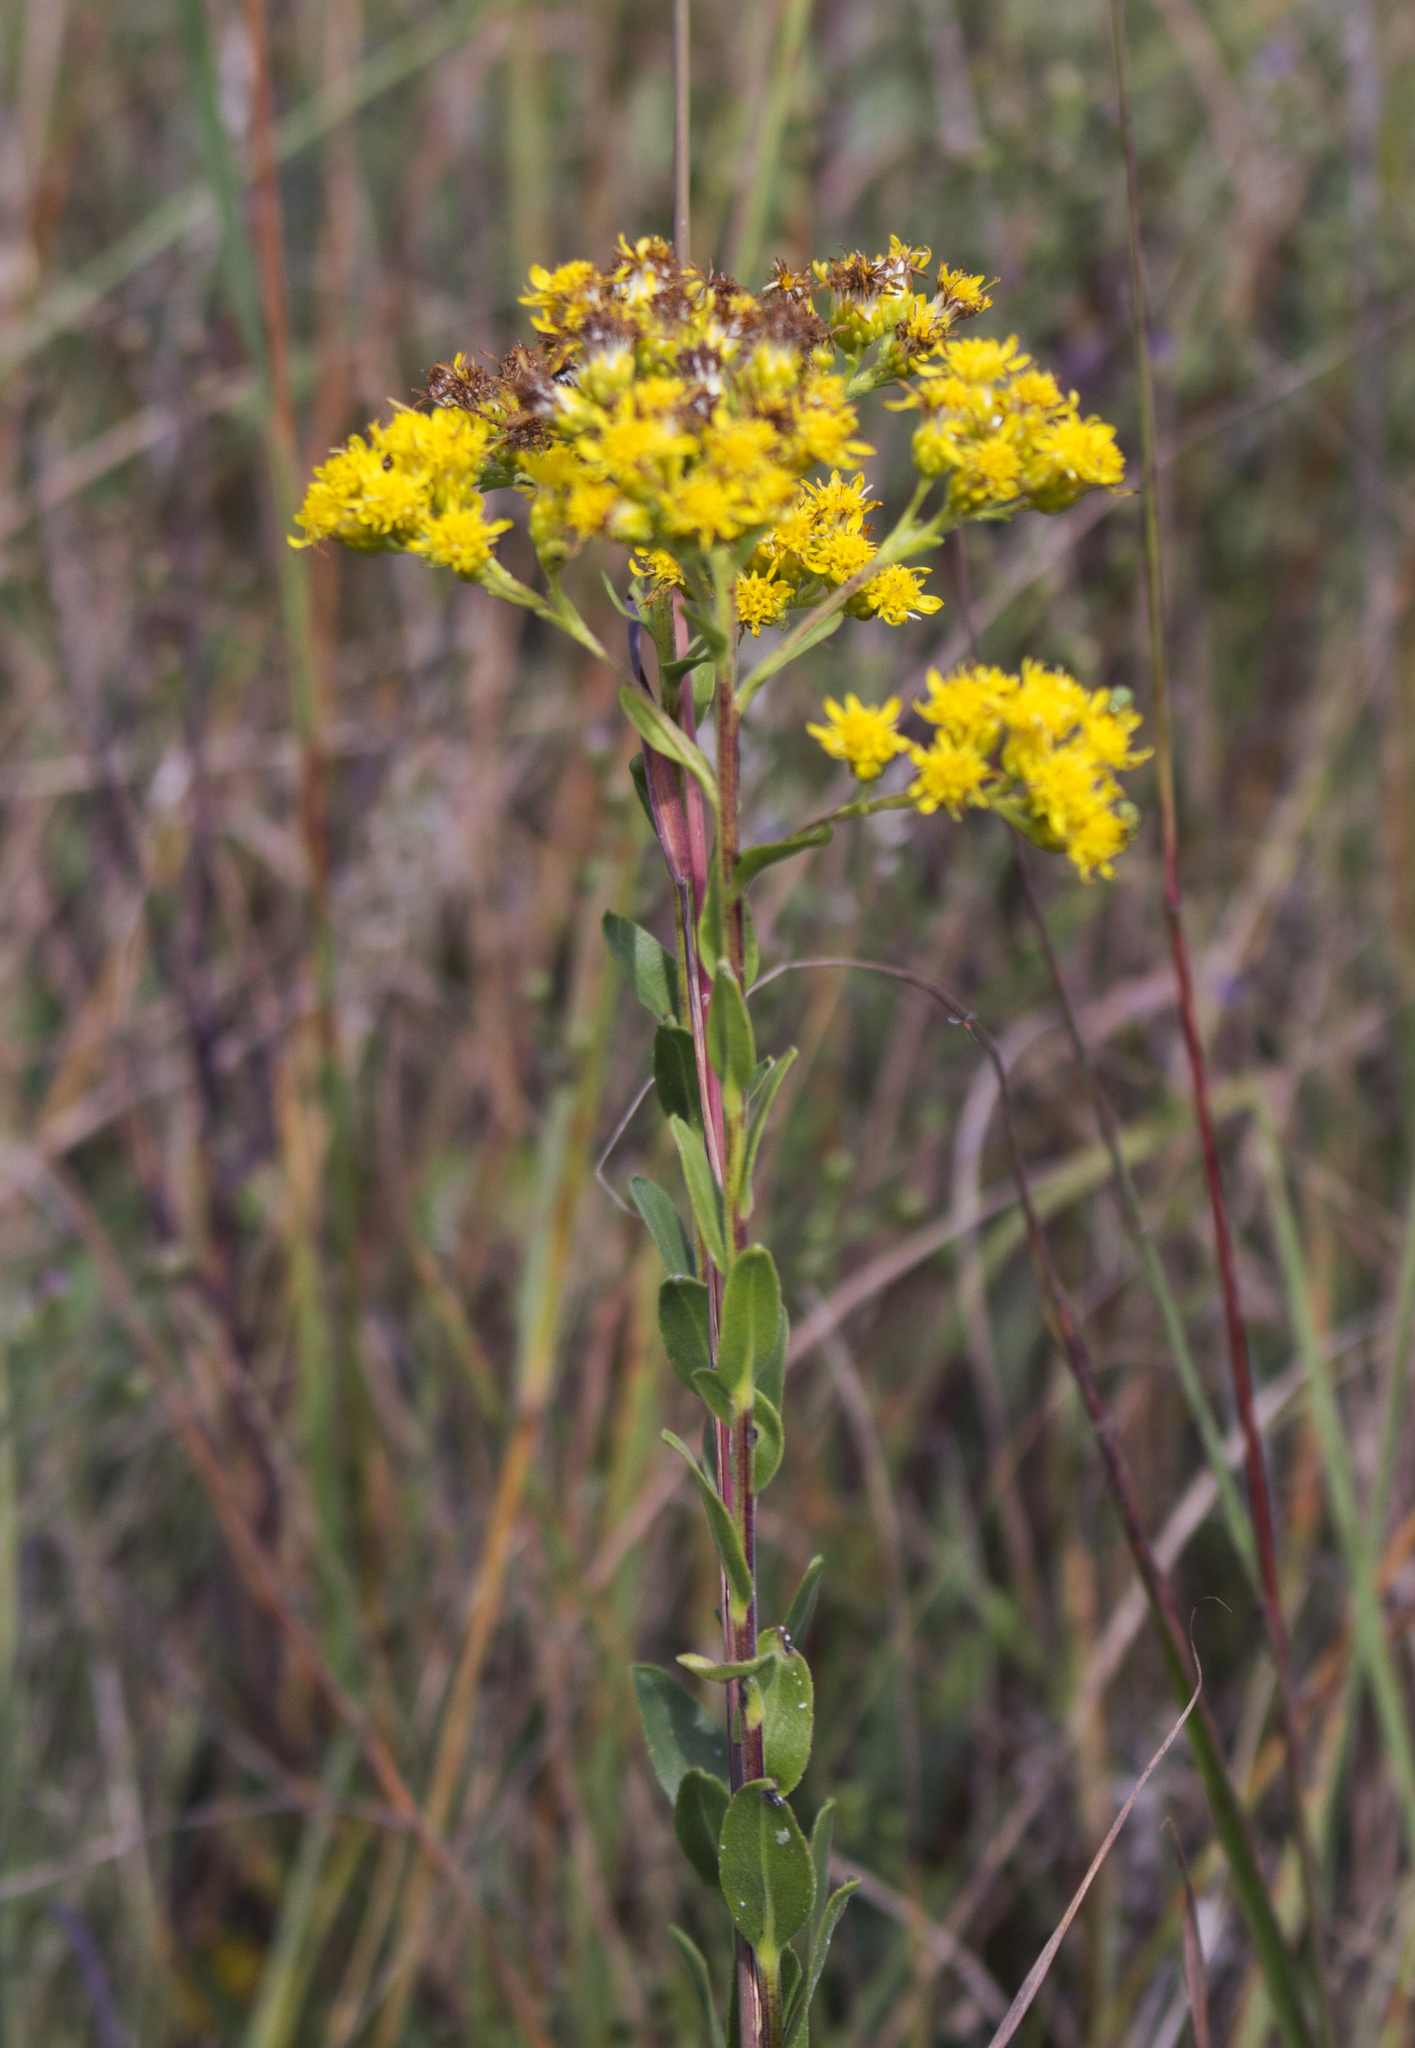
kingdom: Plantae
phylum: Tracheophyta
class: Magnoliopsida
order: Asterales
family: Asteraceae
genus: Solidago
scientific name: Solidago rigida
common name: Rigid goldenrod
